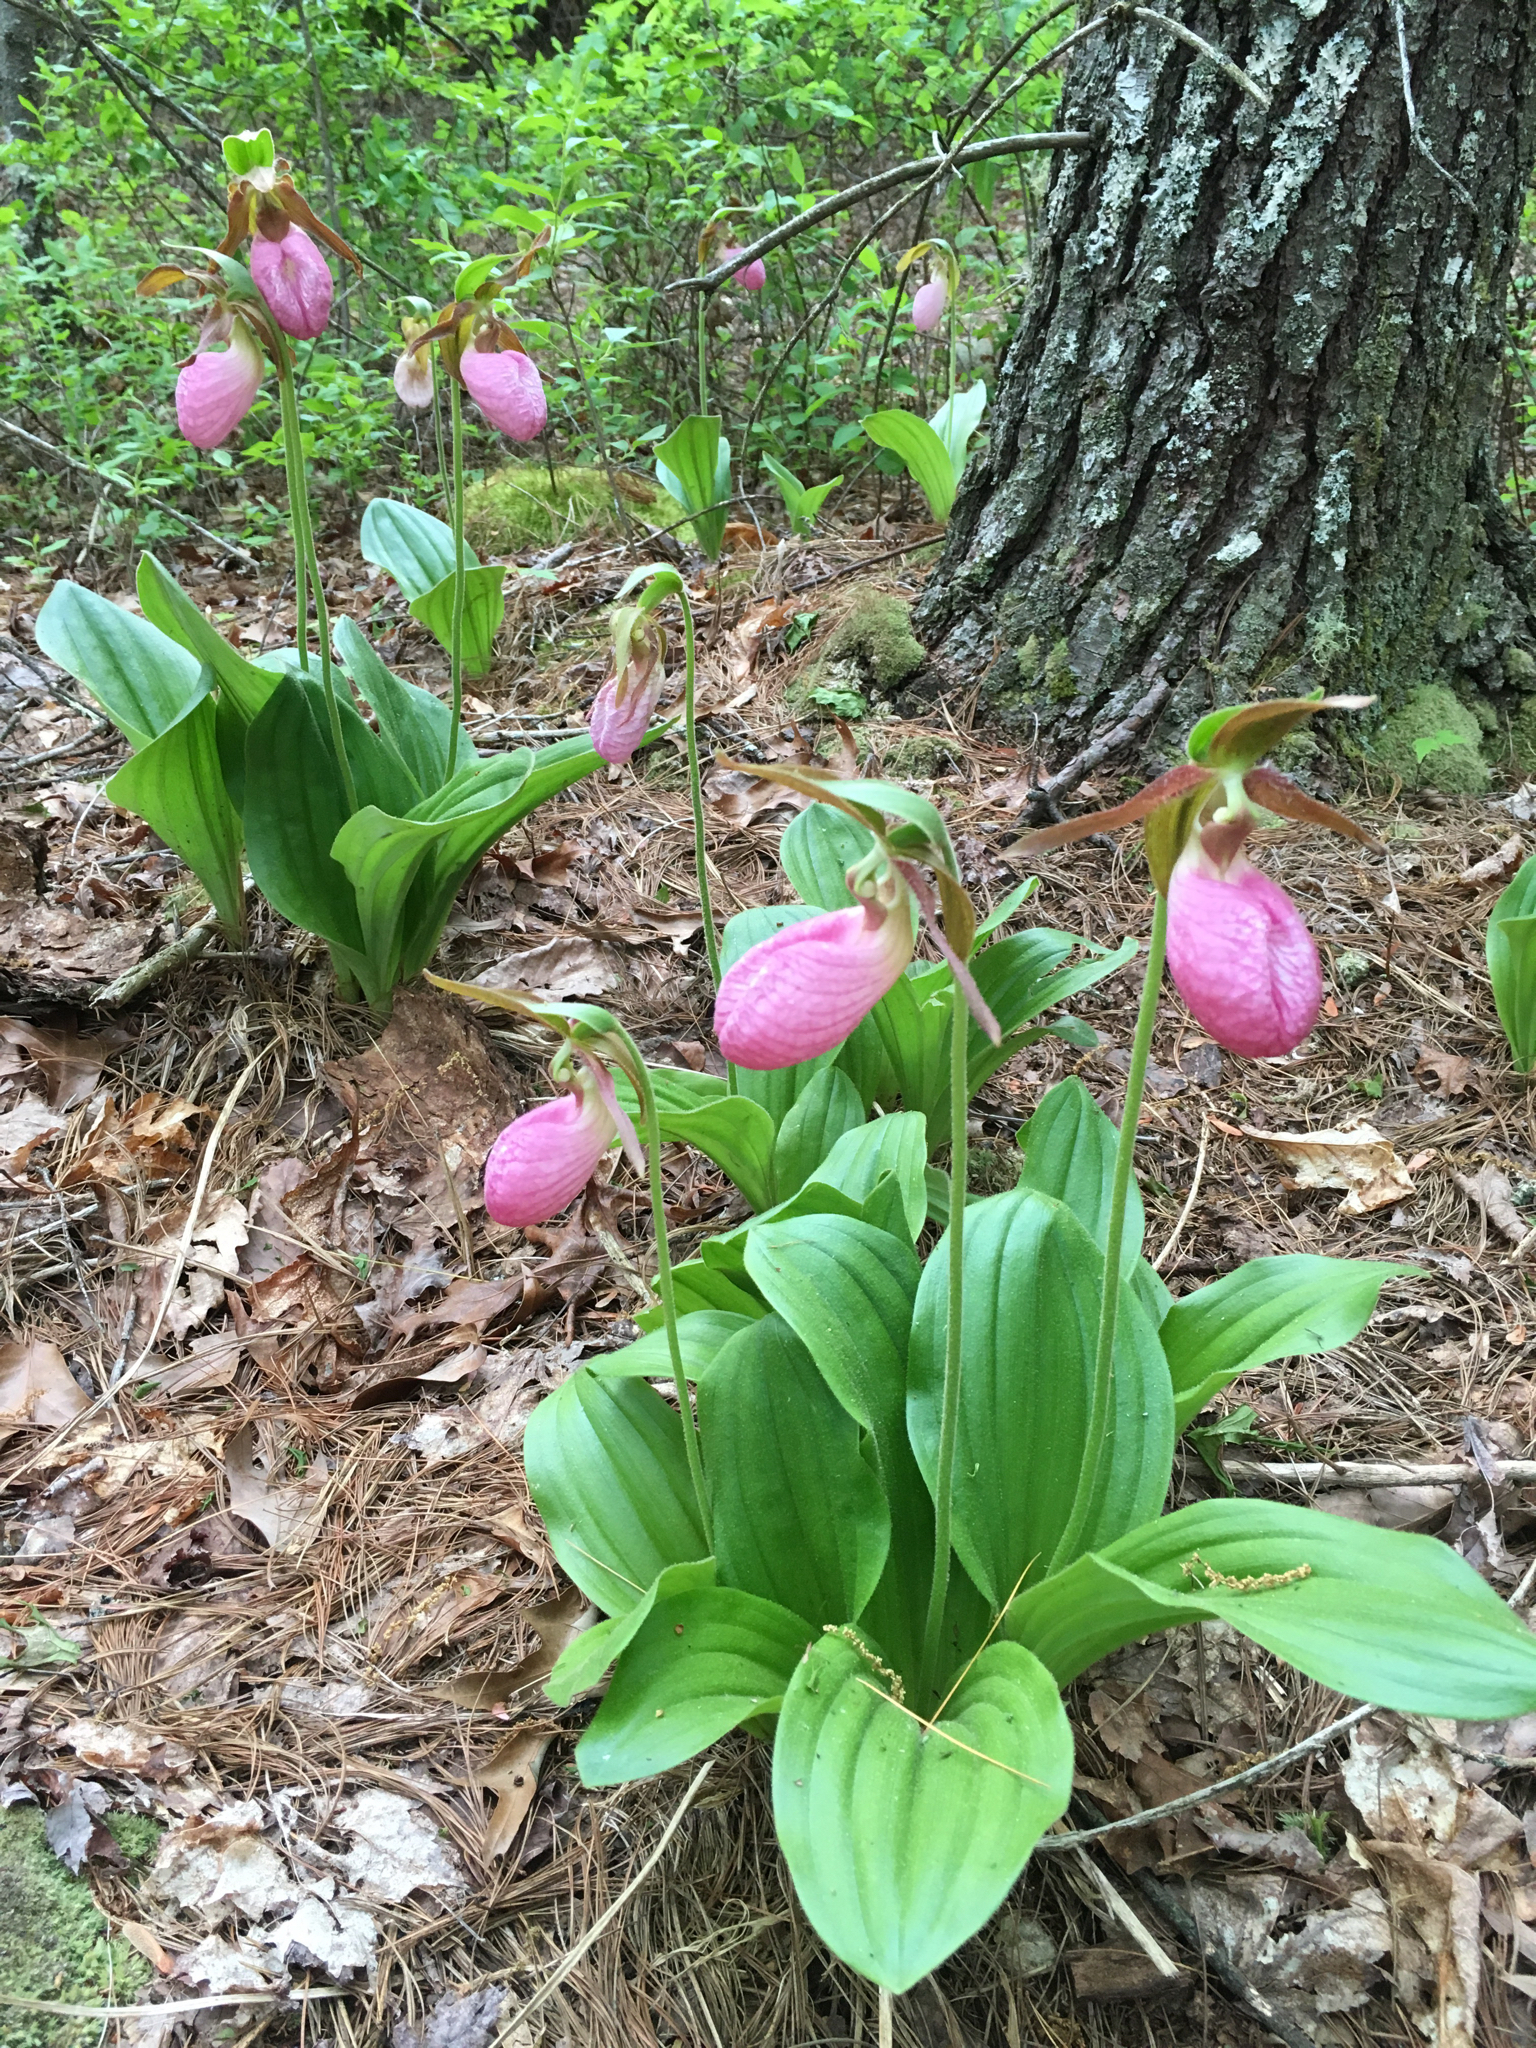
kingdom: Plantae
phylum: Tracheophyta
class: Liliopsida
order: Asparagales
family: Orchidaceae
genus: Cypripedium
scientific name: Cypripedium acaule
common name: Pink lady's-slipper
